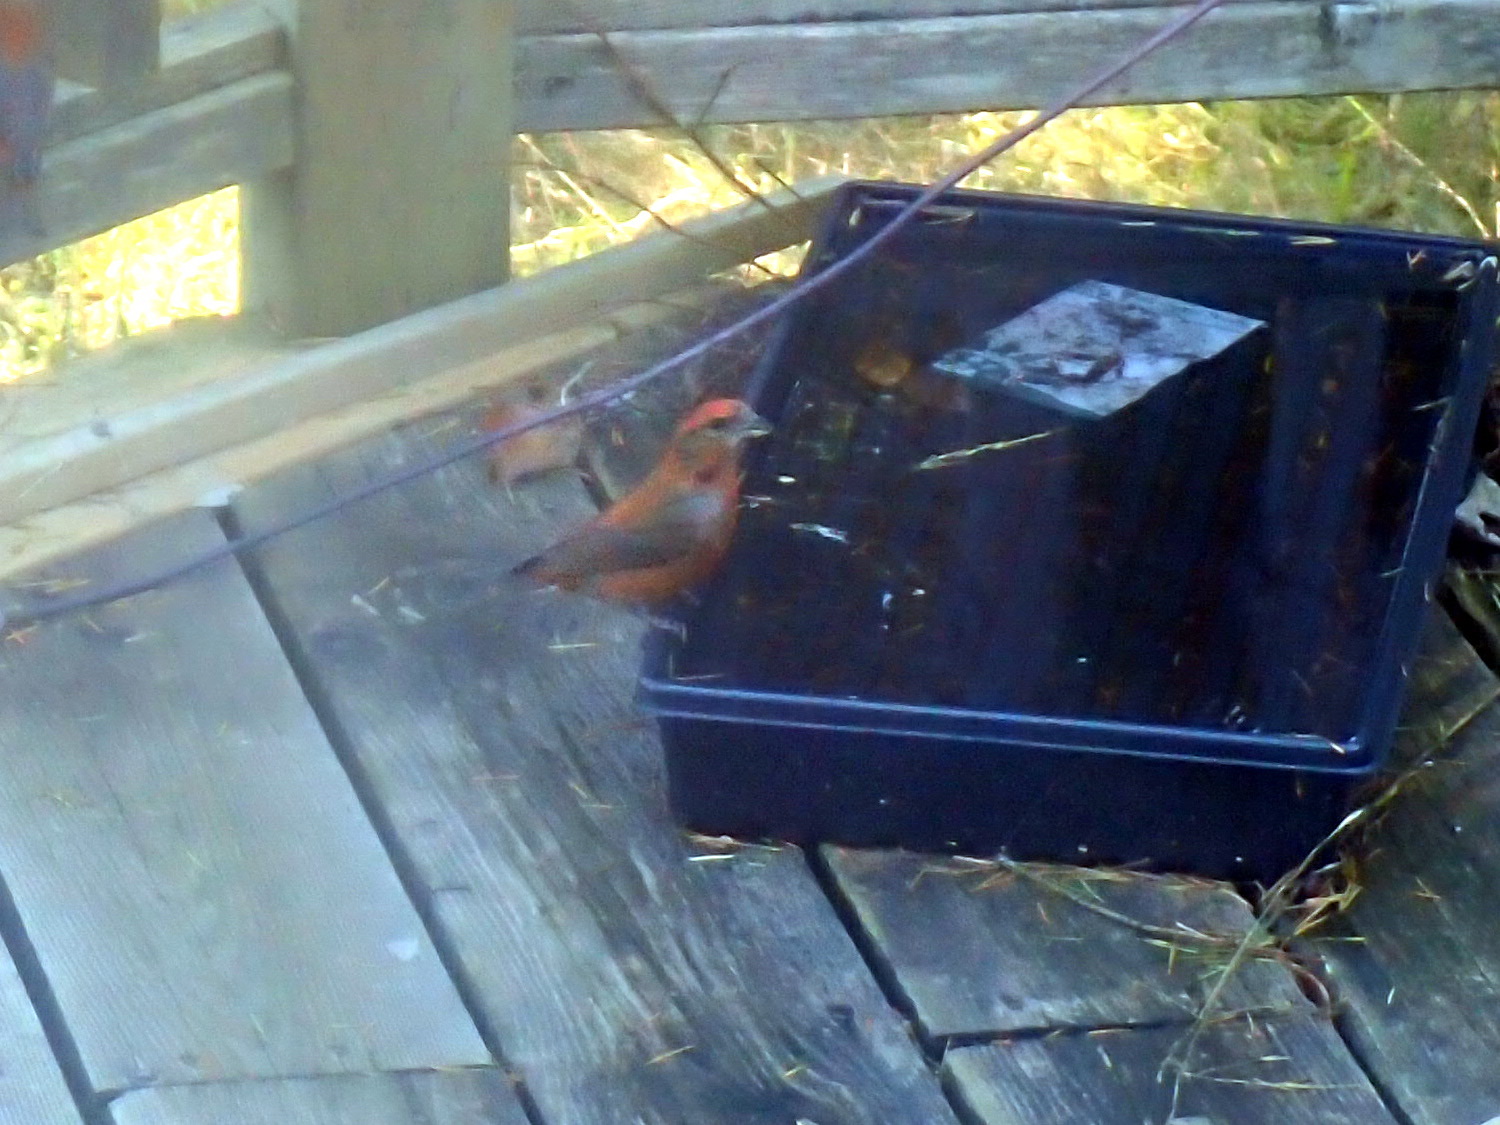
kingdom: Animalia
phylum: Chordata
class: Aves
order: Passeriformes
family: Fringillidae
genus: Loxia
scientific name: Loxia curvirostra
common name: Red crossbill
